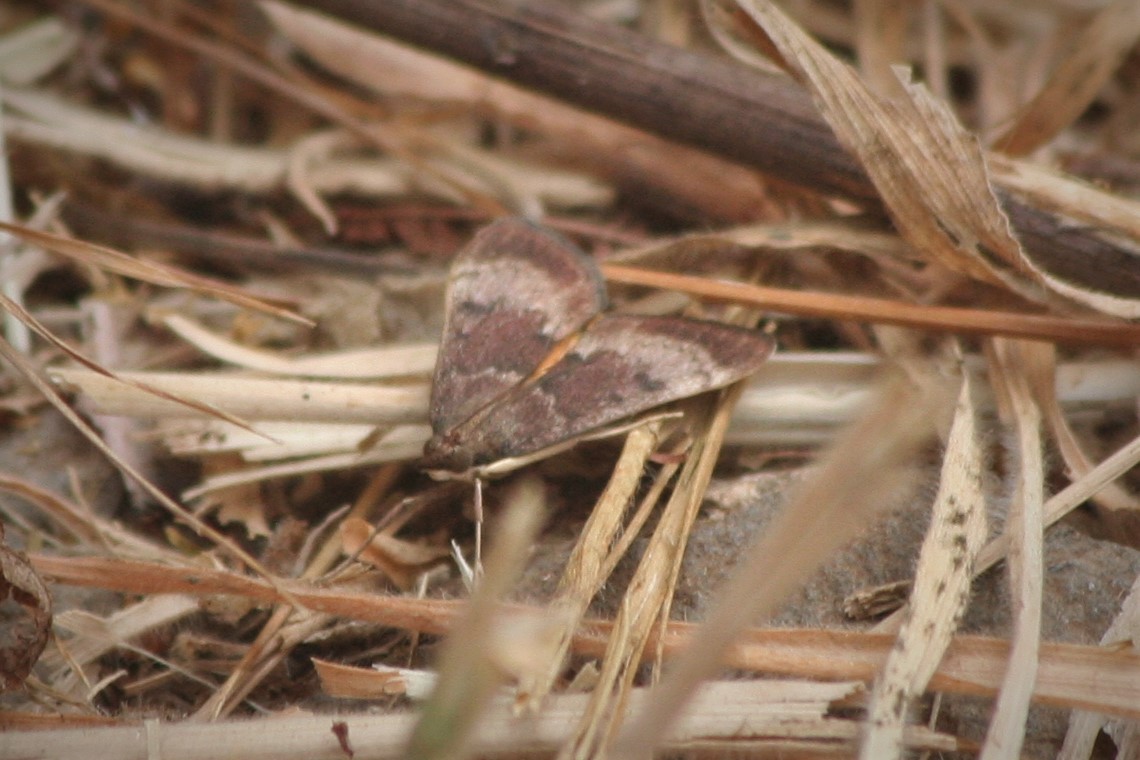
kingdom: Animalia
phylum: Arthropoda
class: Insecta
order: Lepidoptera
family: Crambidae
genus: Uresiphita
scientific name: Uresiphita gilvata
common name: Yellow-underwing pearl
